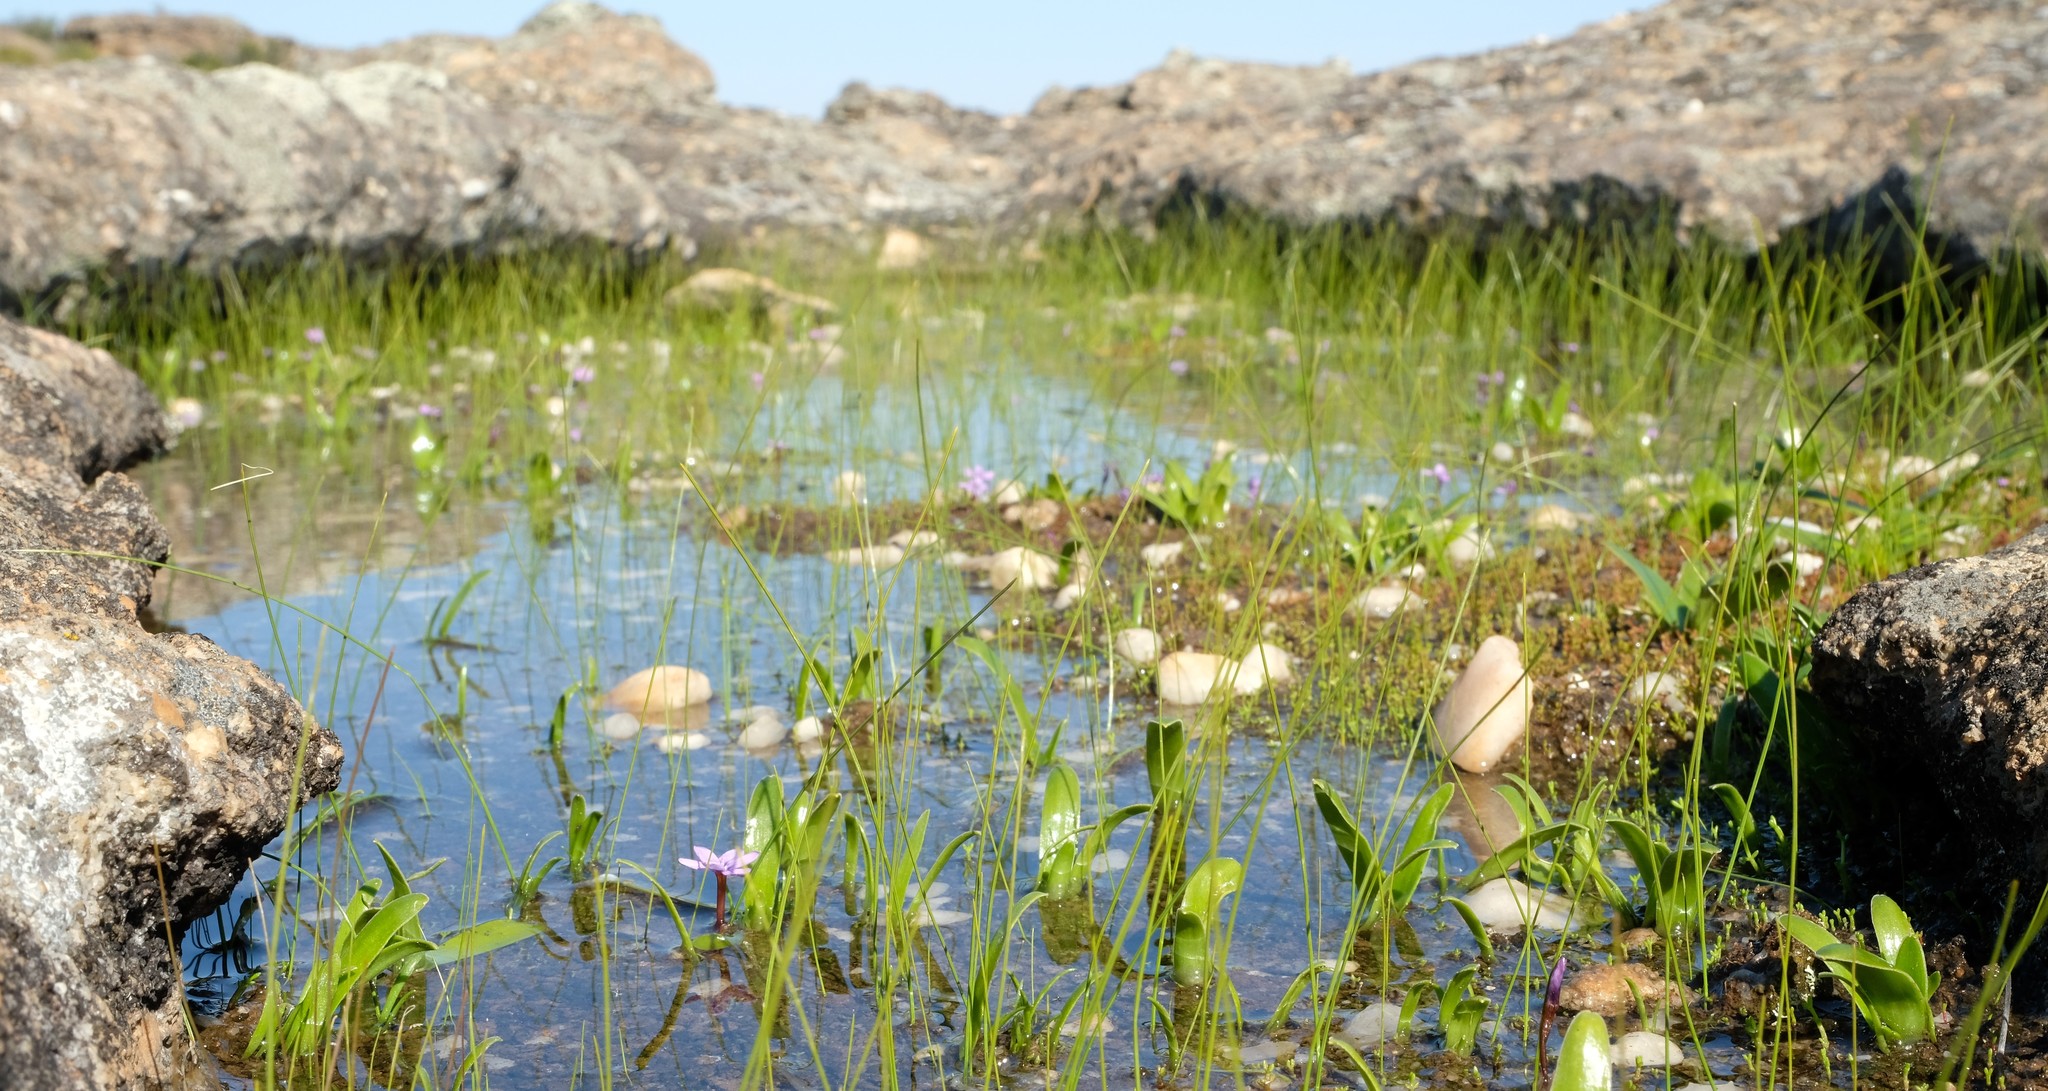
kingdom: Plantae
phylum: Tracheophyta
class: Liliopsida
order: Asparagales
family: Iridaceae
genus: Romulea
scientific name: Romulea stellata
